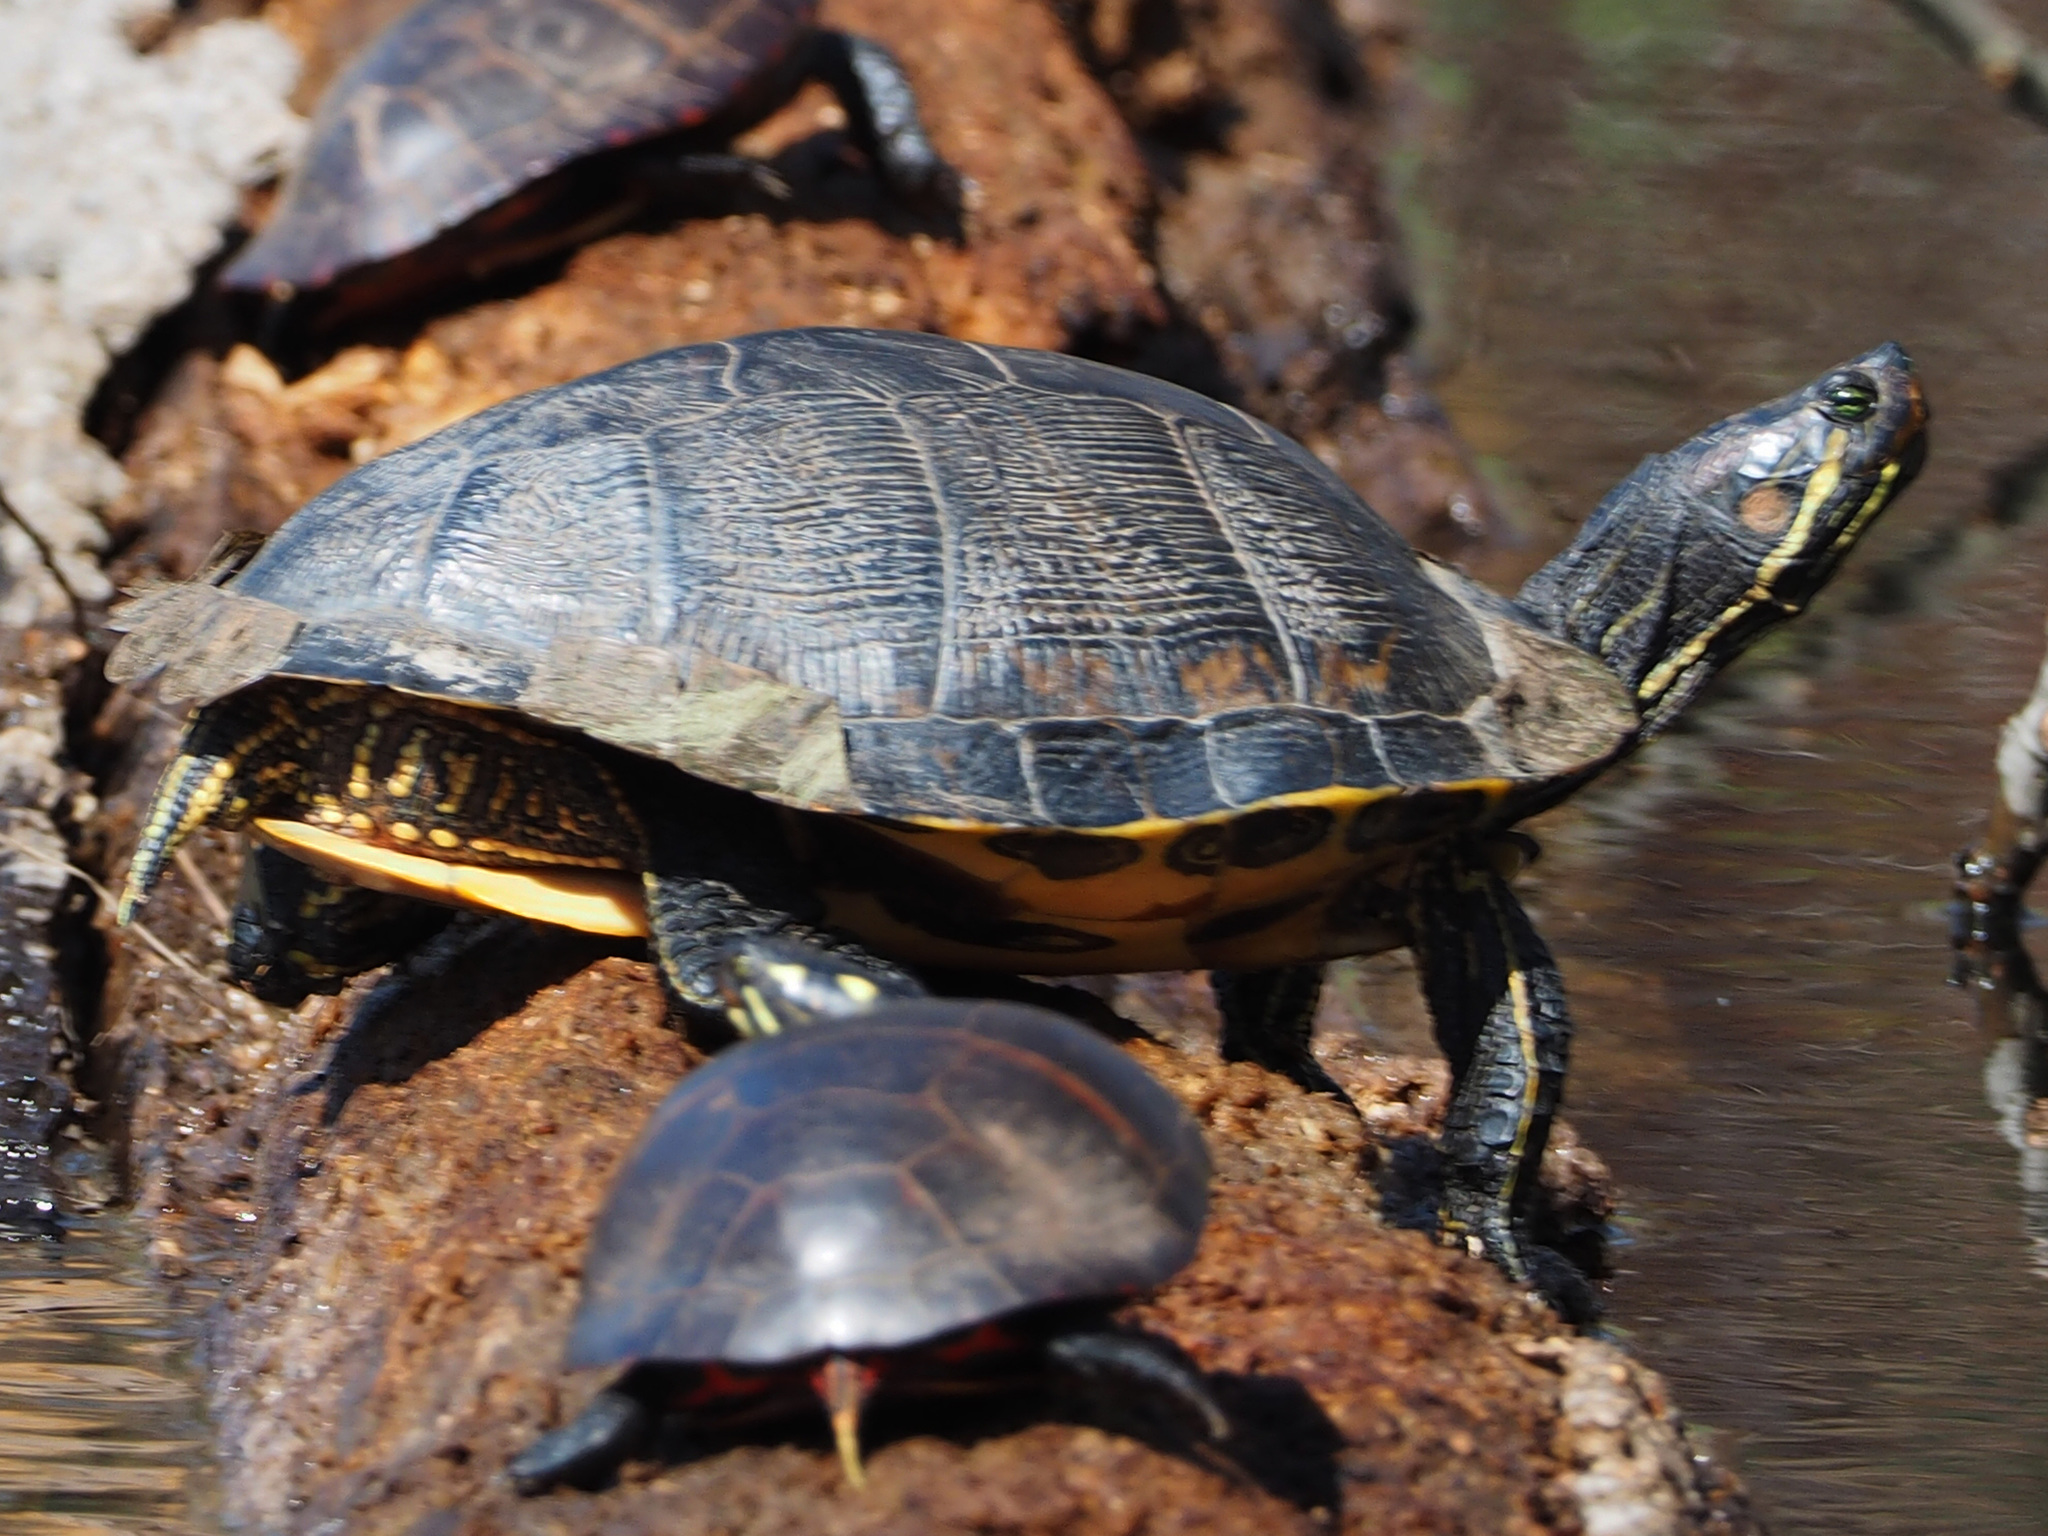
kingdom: Animalia
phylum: Chordata
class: Testudines
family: Emydidae
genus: Trachemys
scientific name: Trachemys scripta
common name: Slider
